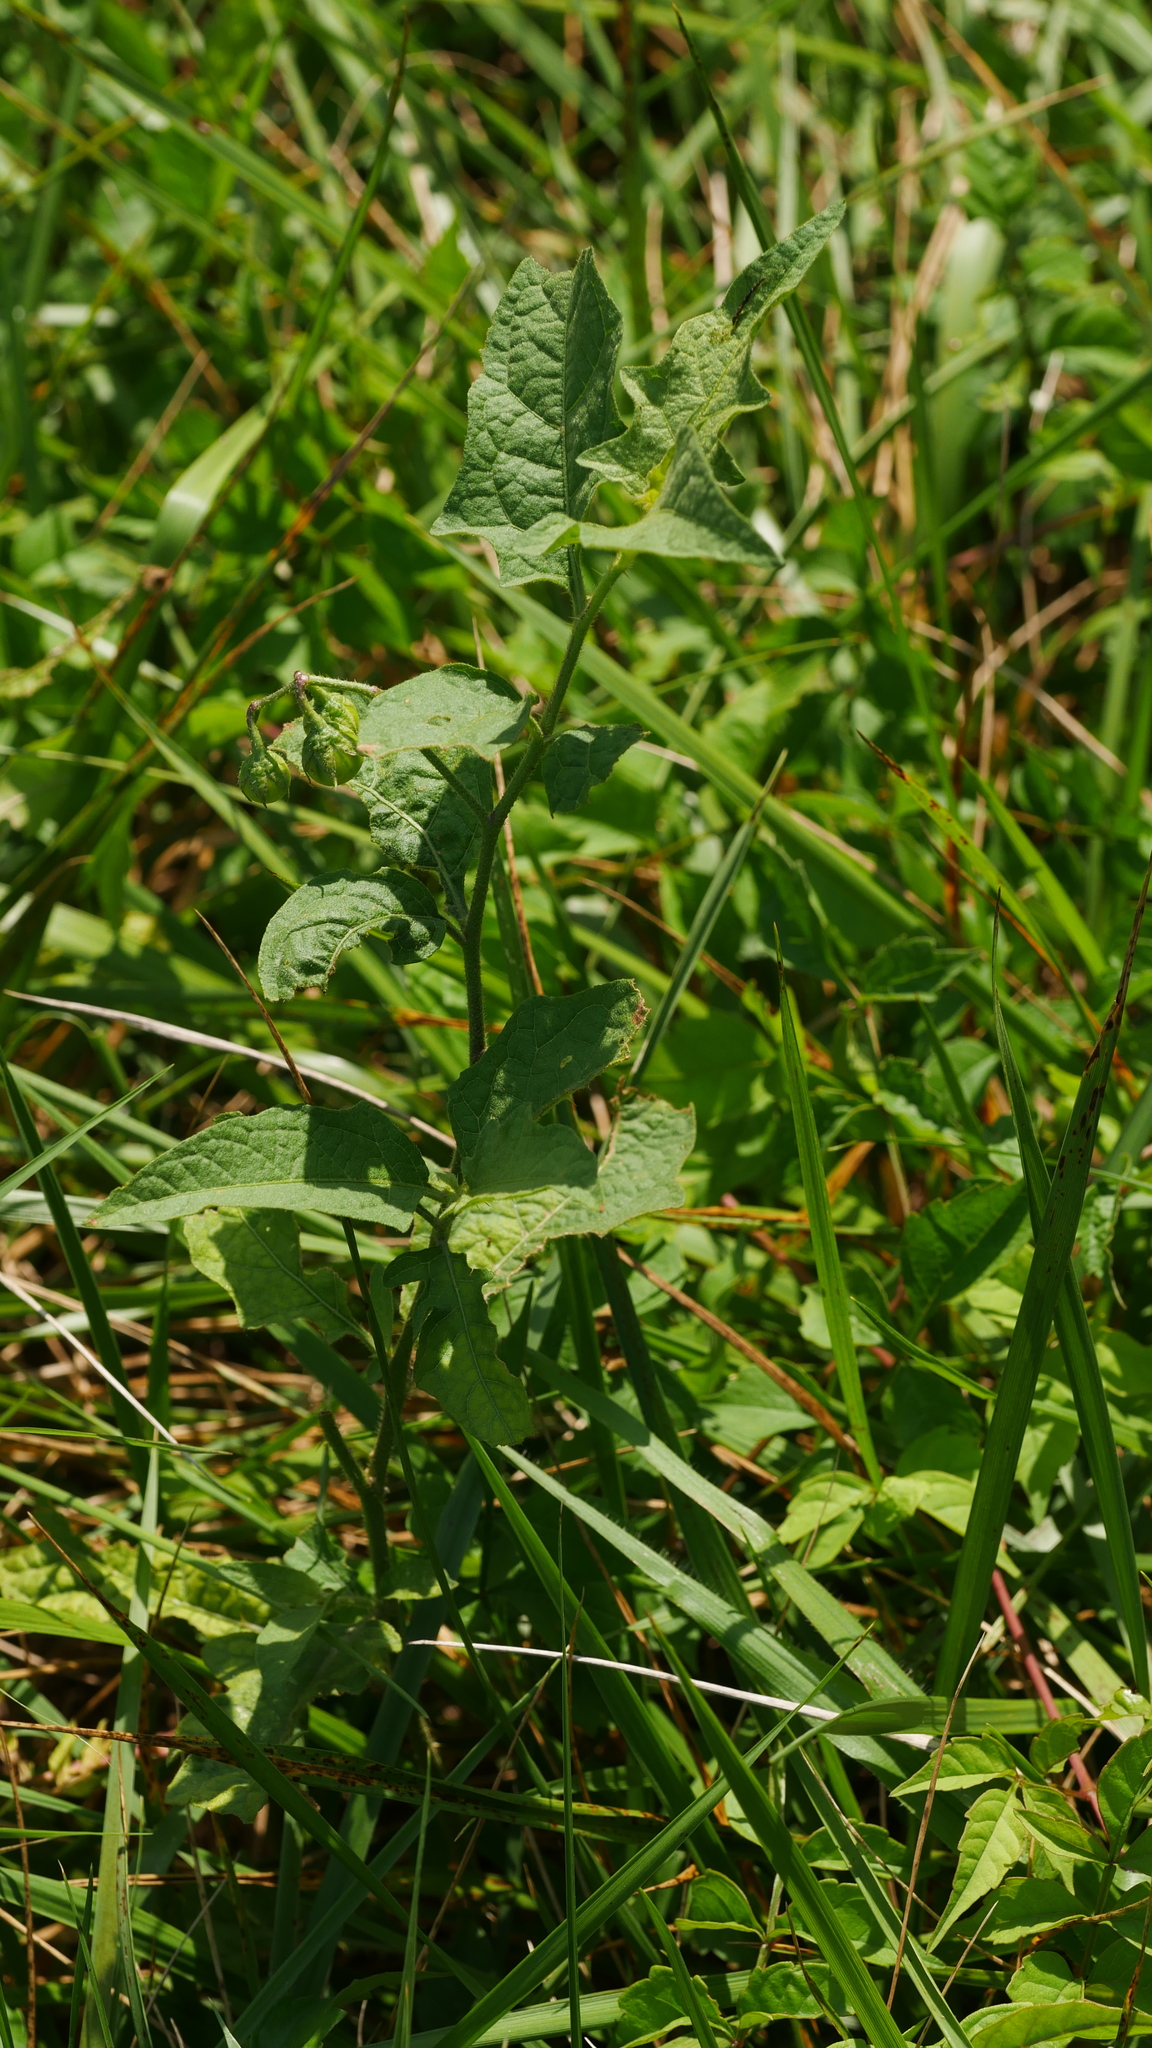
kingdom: Plantae
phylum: Tracheophyta
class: Magnoliopsida
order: Solanales
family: Solanaceae
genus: Solanum
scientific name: Solanum carolinense
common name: Horse-nettle
